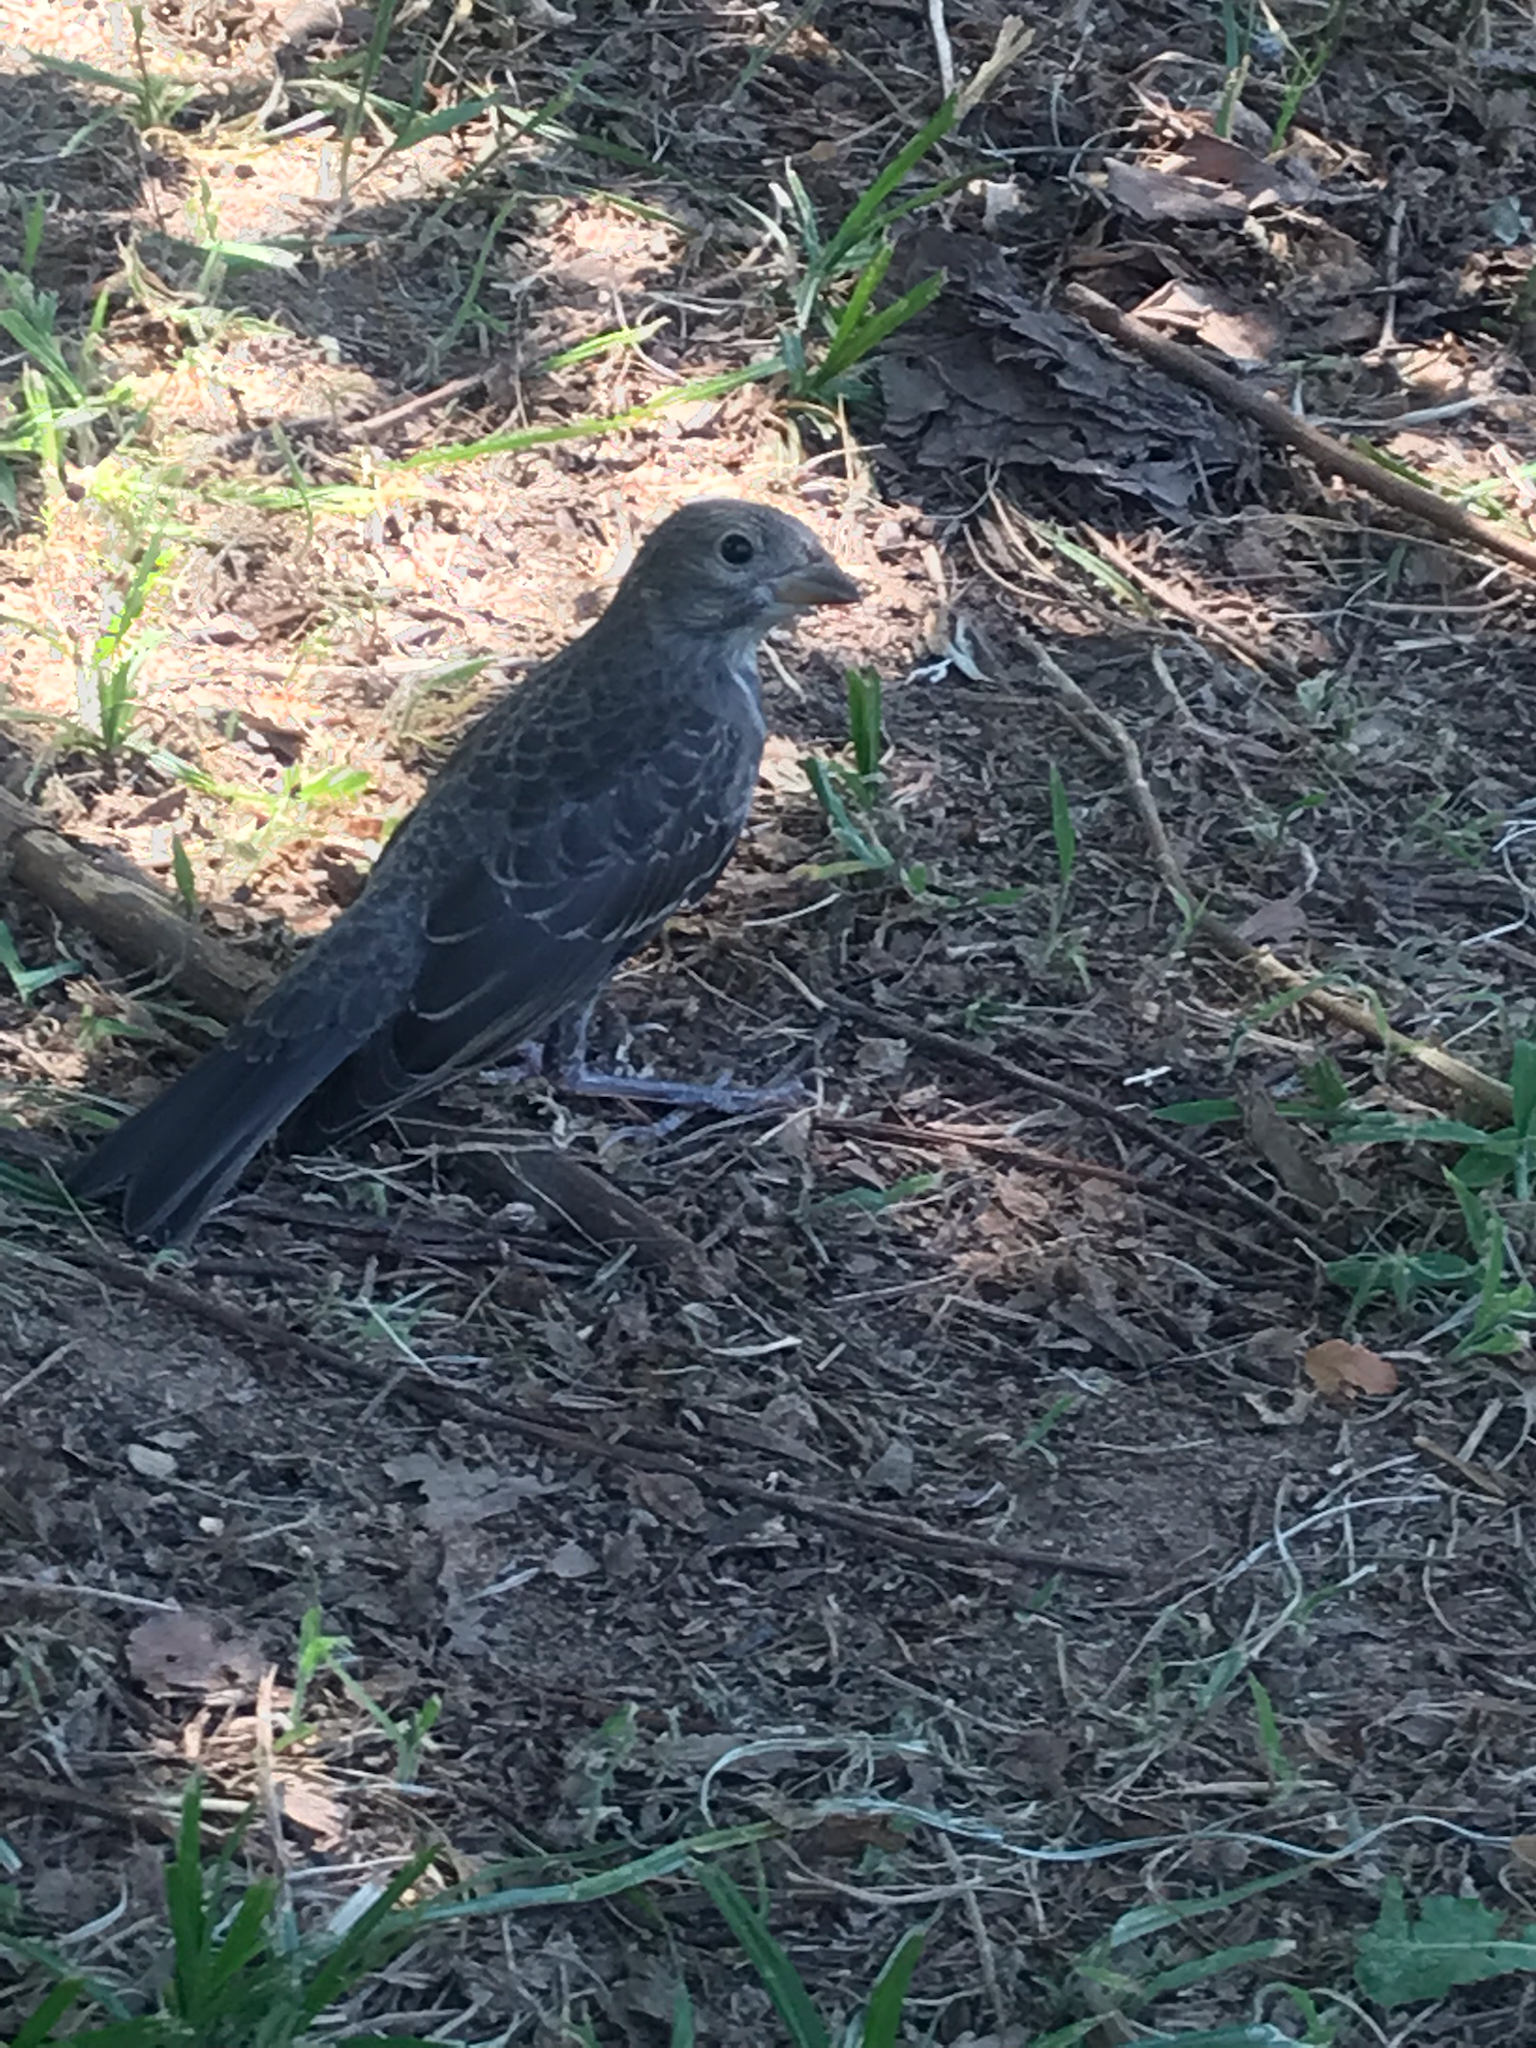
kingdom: Animalia
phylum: Chordata
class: Aves
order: Passeriformes
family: Icteridae
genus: Molothrus
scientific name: Molothrus ater
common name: Brown-headed cowbird
